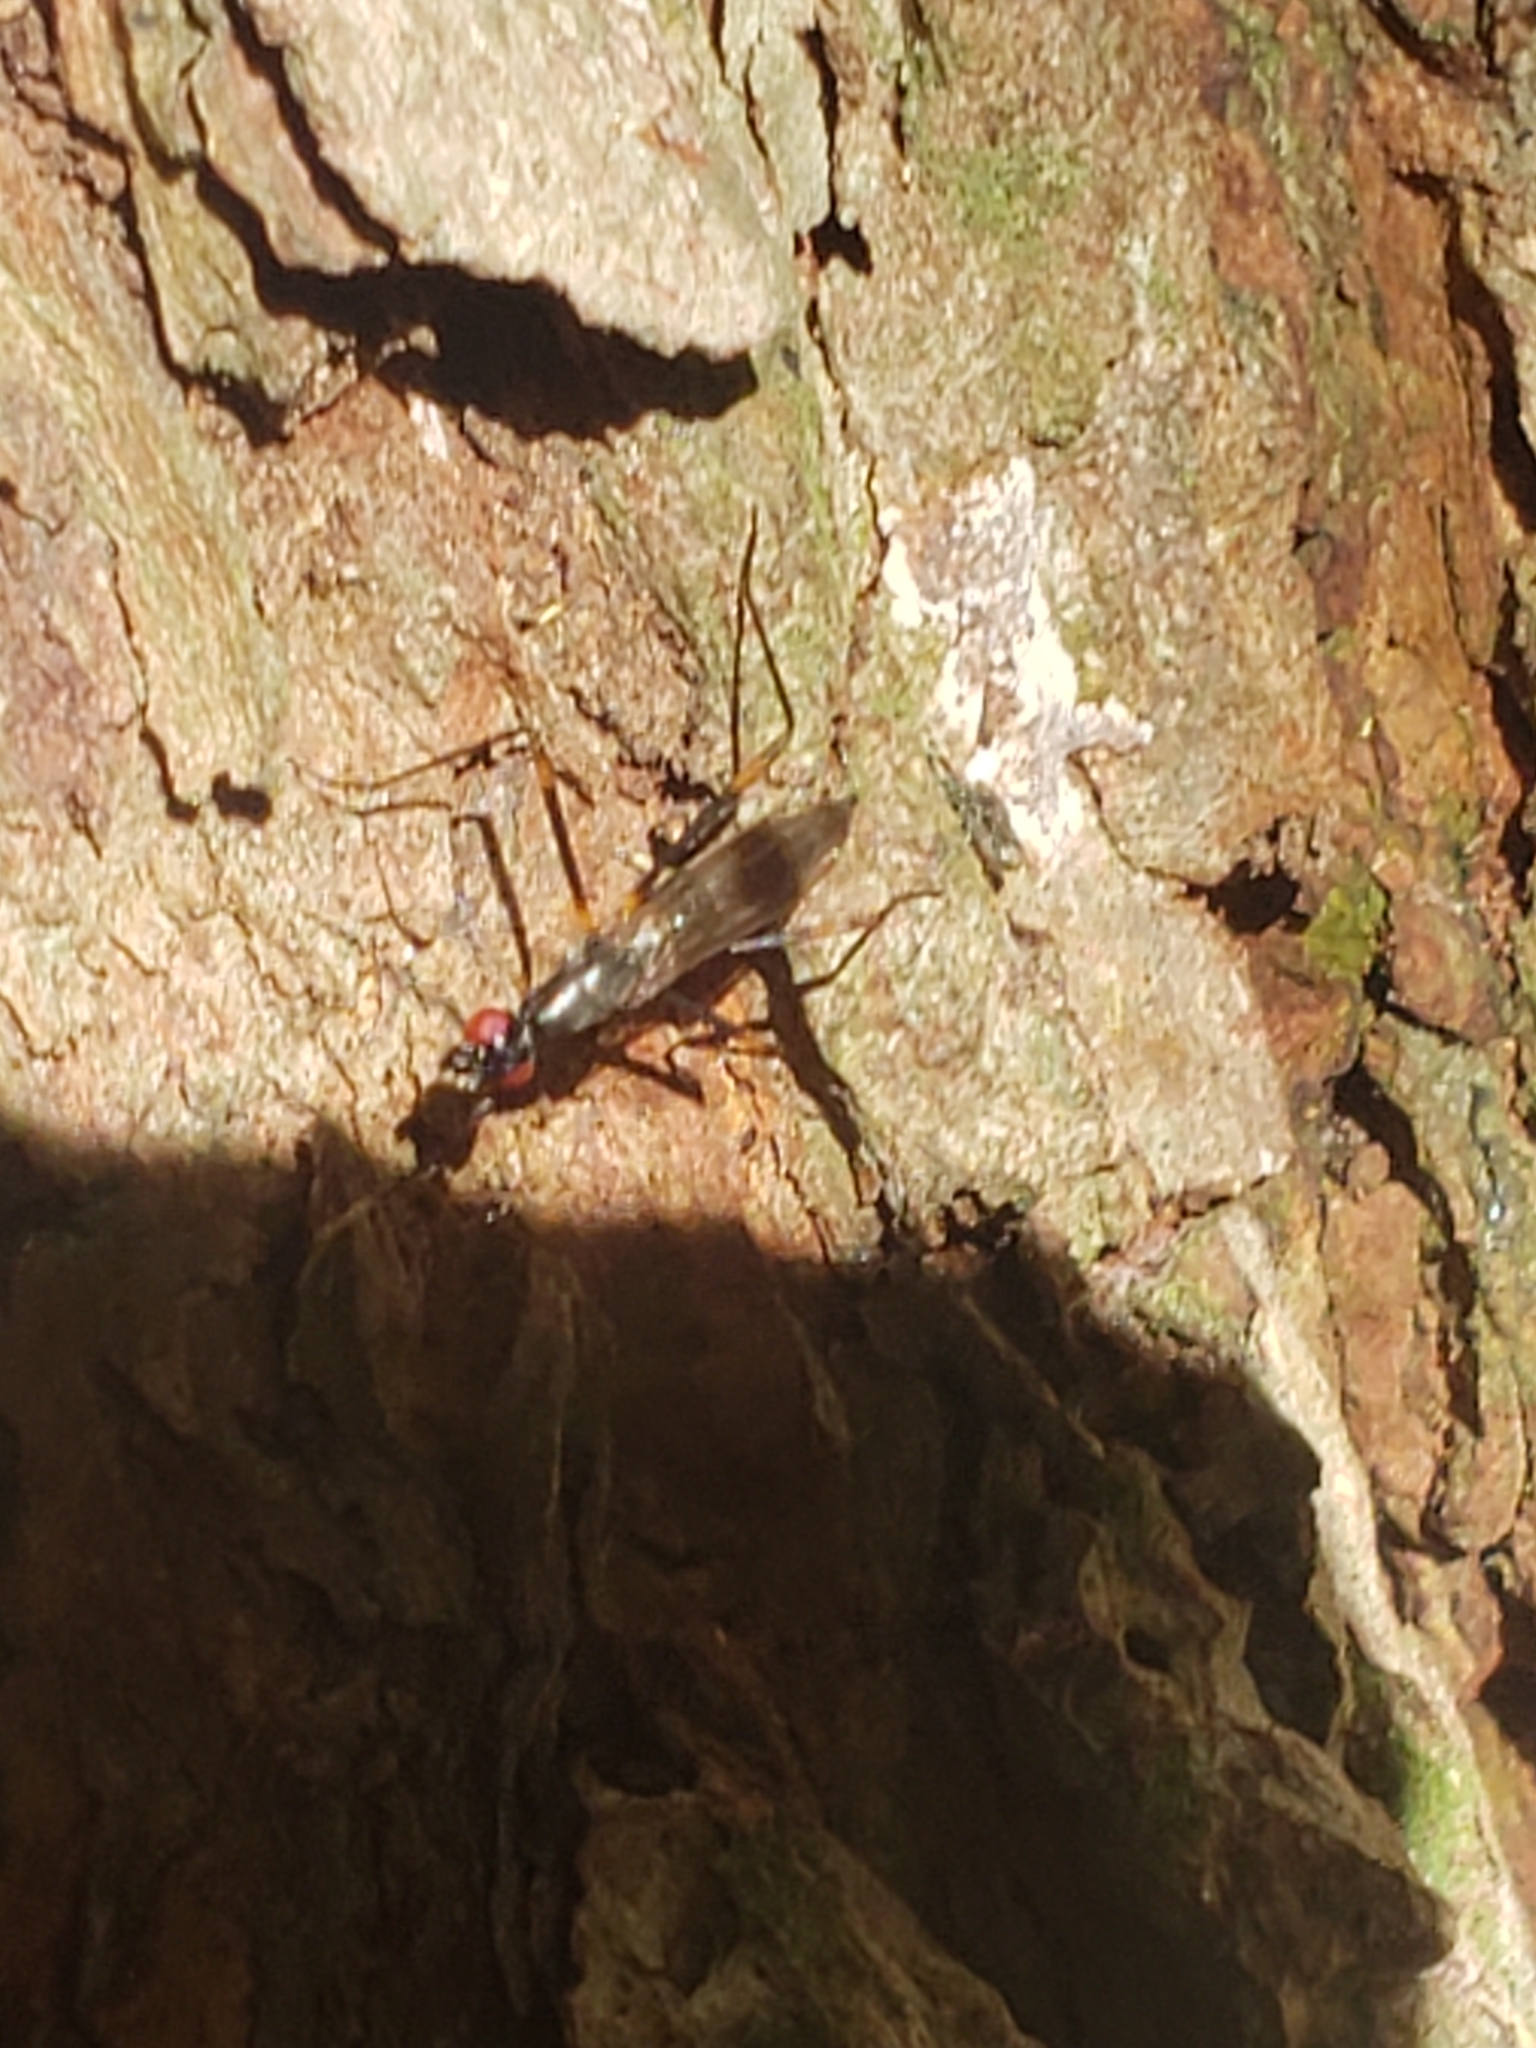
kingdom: Animalia
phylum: Arthropoda
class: Insecta
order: Diptera
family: Micropezidae
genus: Rainieria
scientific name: Rainieria antennaepes
